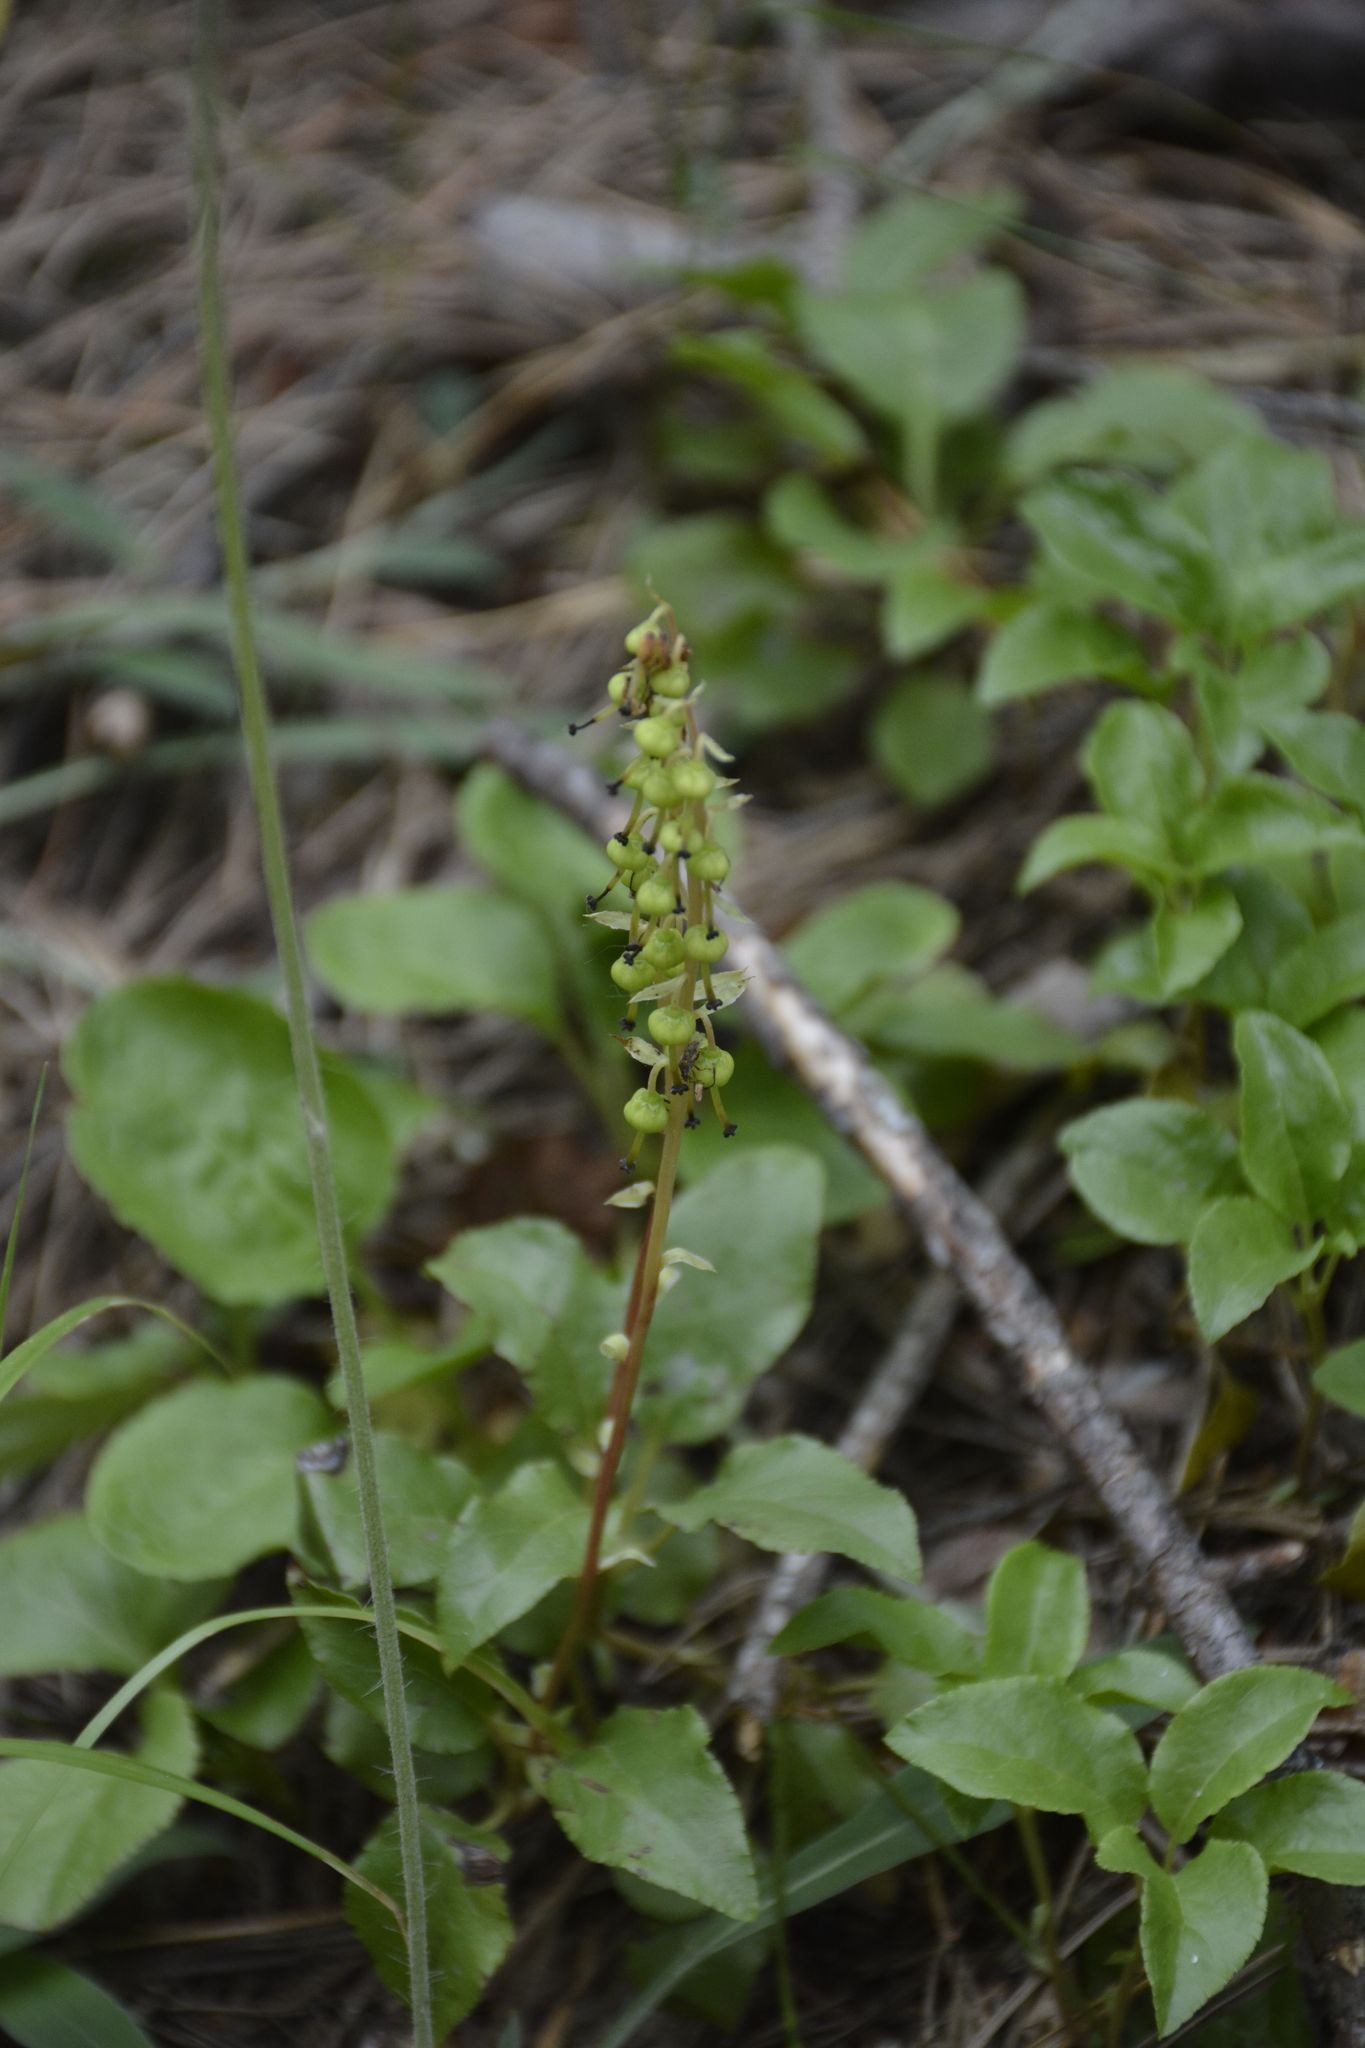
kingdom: Plantae
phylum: Tracheophyta
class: Magnoliopsida
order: Ericales
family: Ericaceae
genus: Orthilia
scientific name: Orthilia secunda
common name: One-sided orthilia
